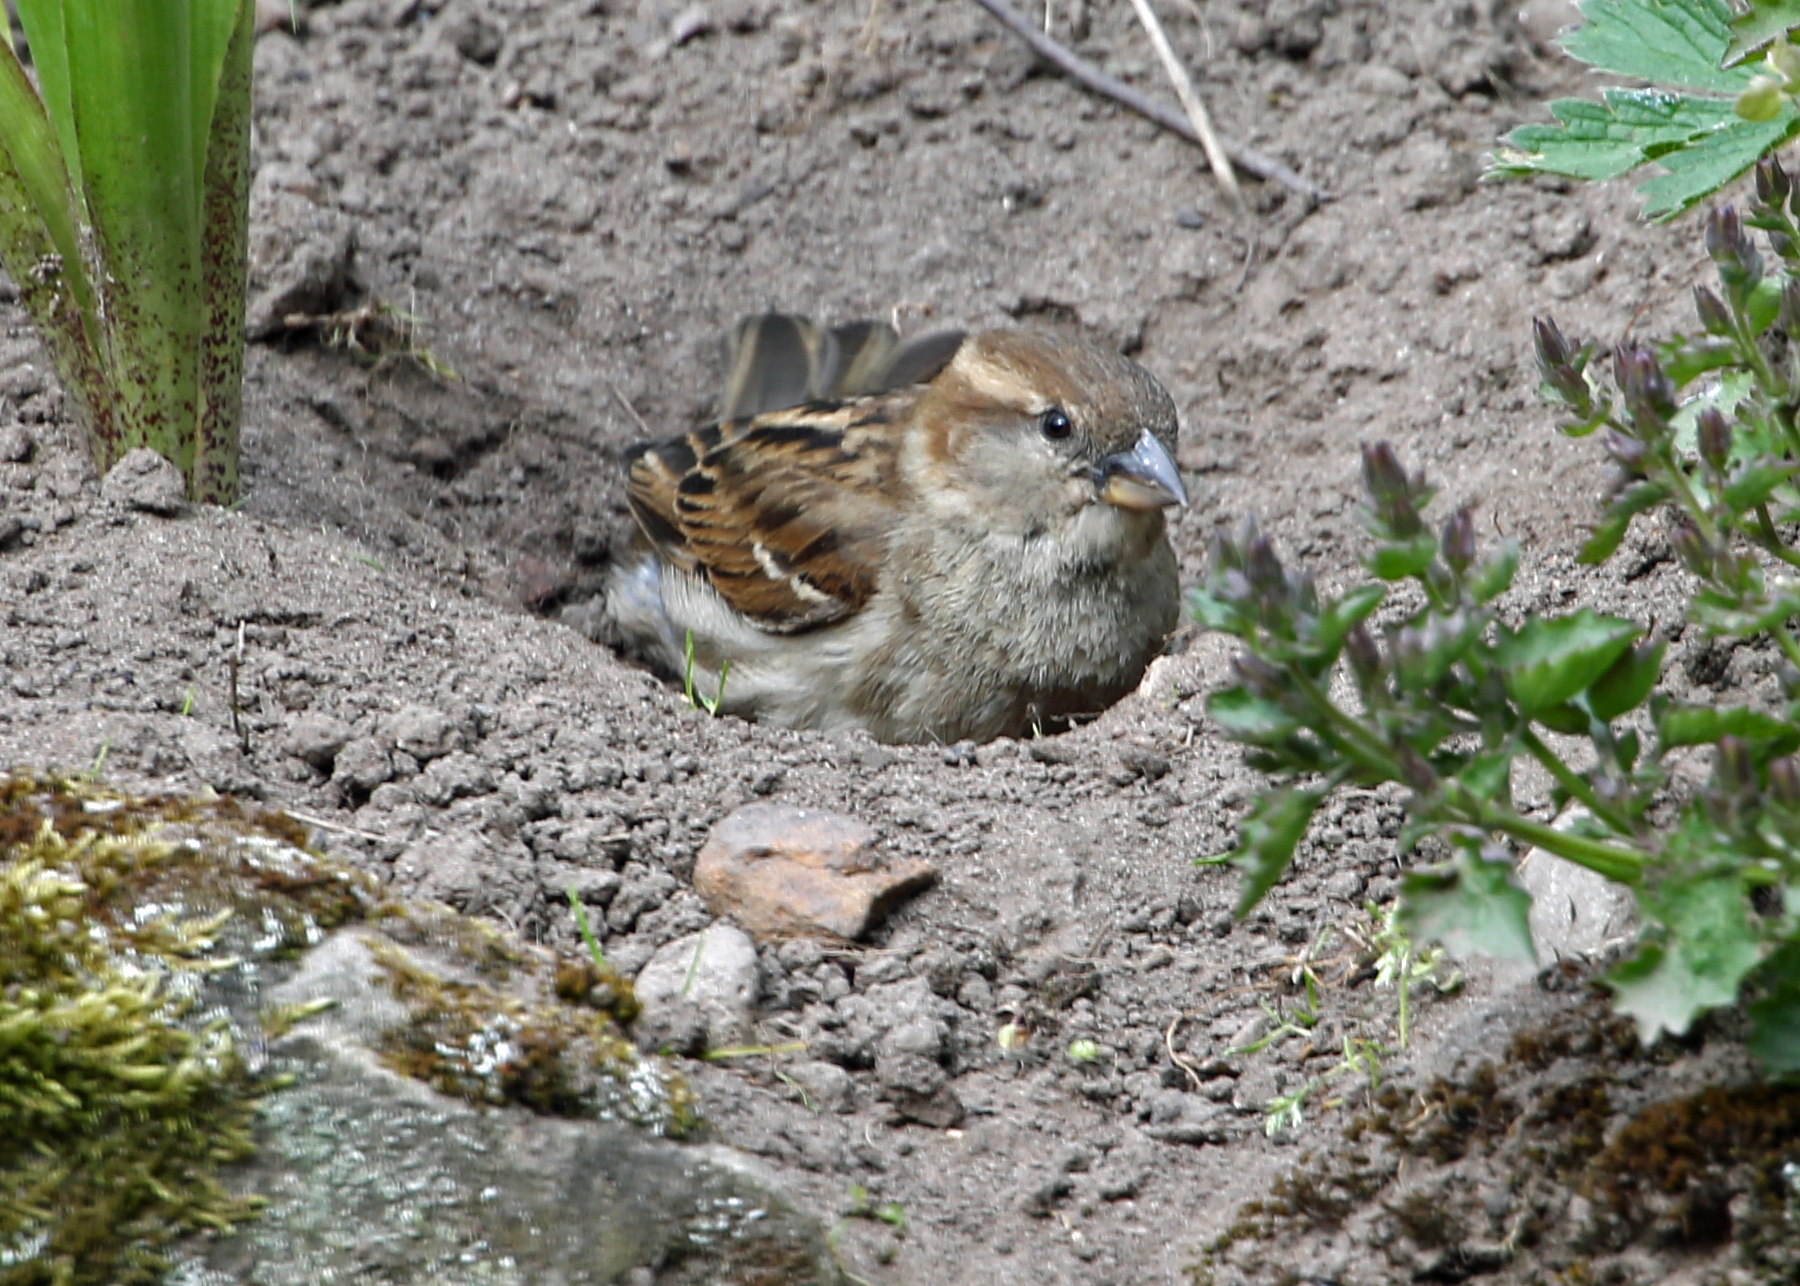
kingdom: Animalia
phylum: Chordata
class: Aves
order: Passeriformes
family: Passeridae
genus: Passer
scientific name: Passer domesticus
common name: House sparrow
